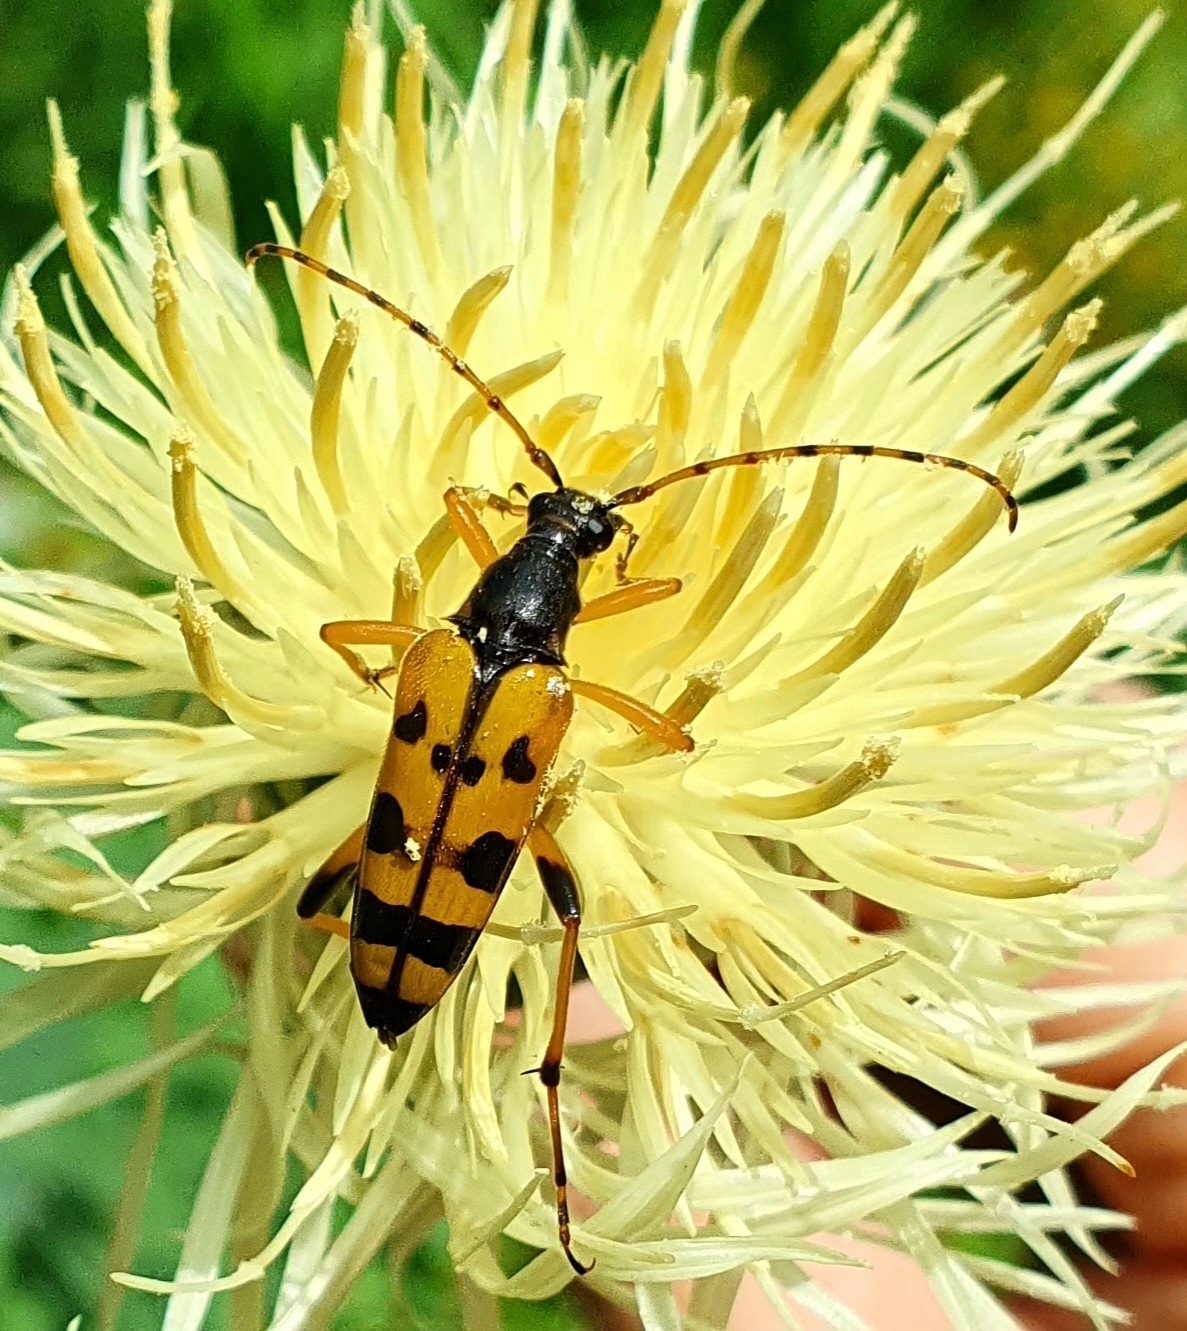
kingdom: Animalia
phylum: Arthropoda
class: Insecta
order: Coleoptera
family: Cerambycidae
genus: Rutpela
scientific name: Rutpela maculata
